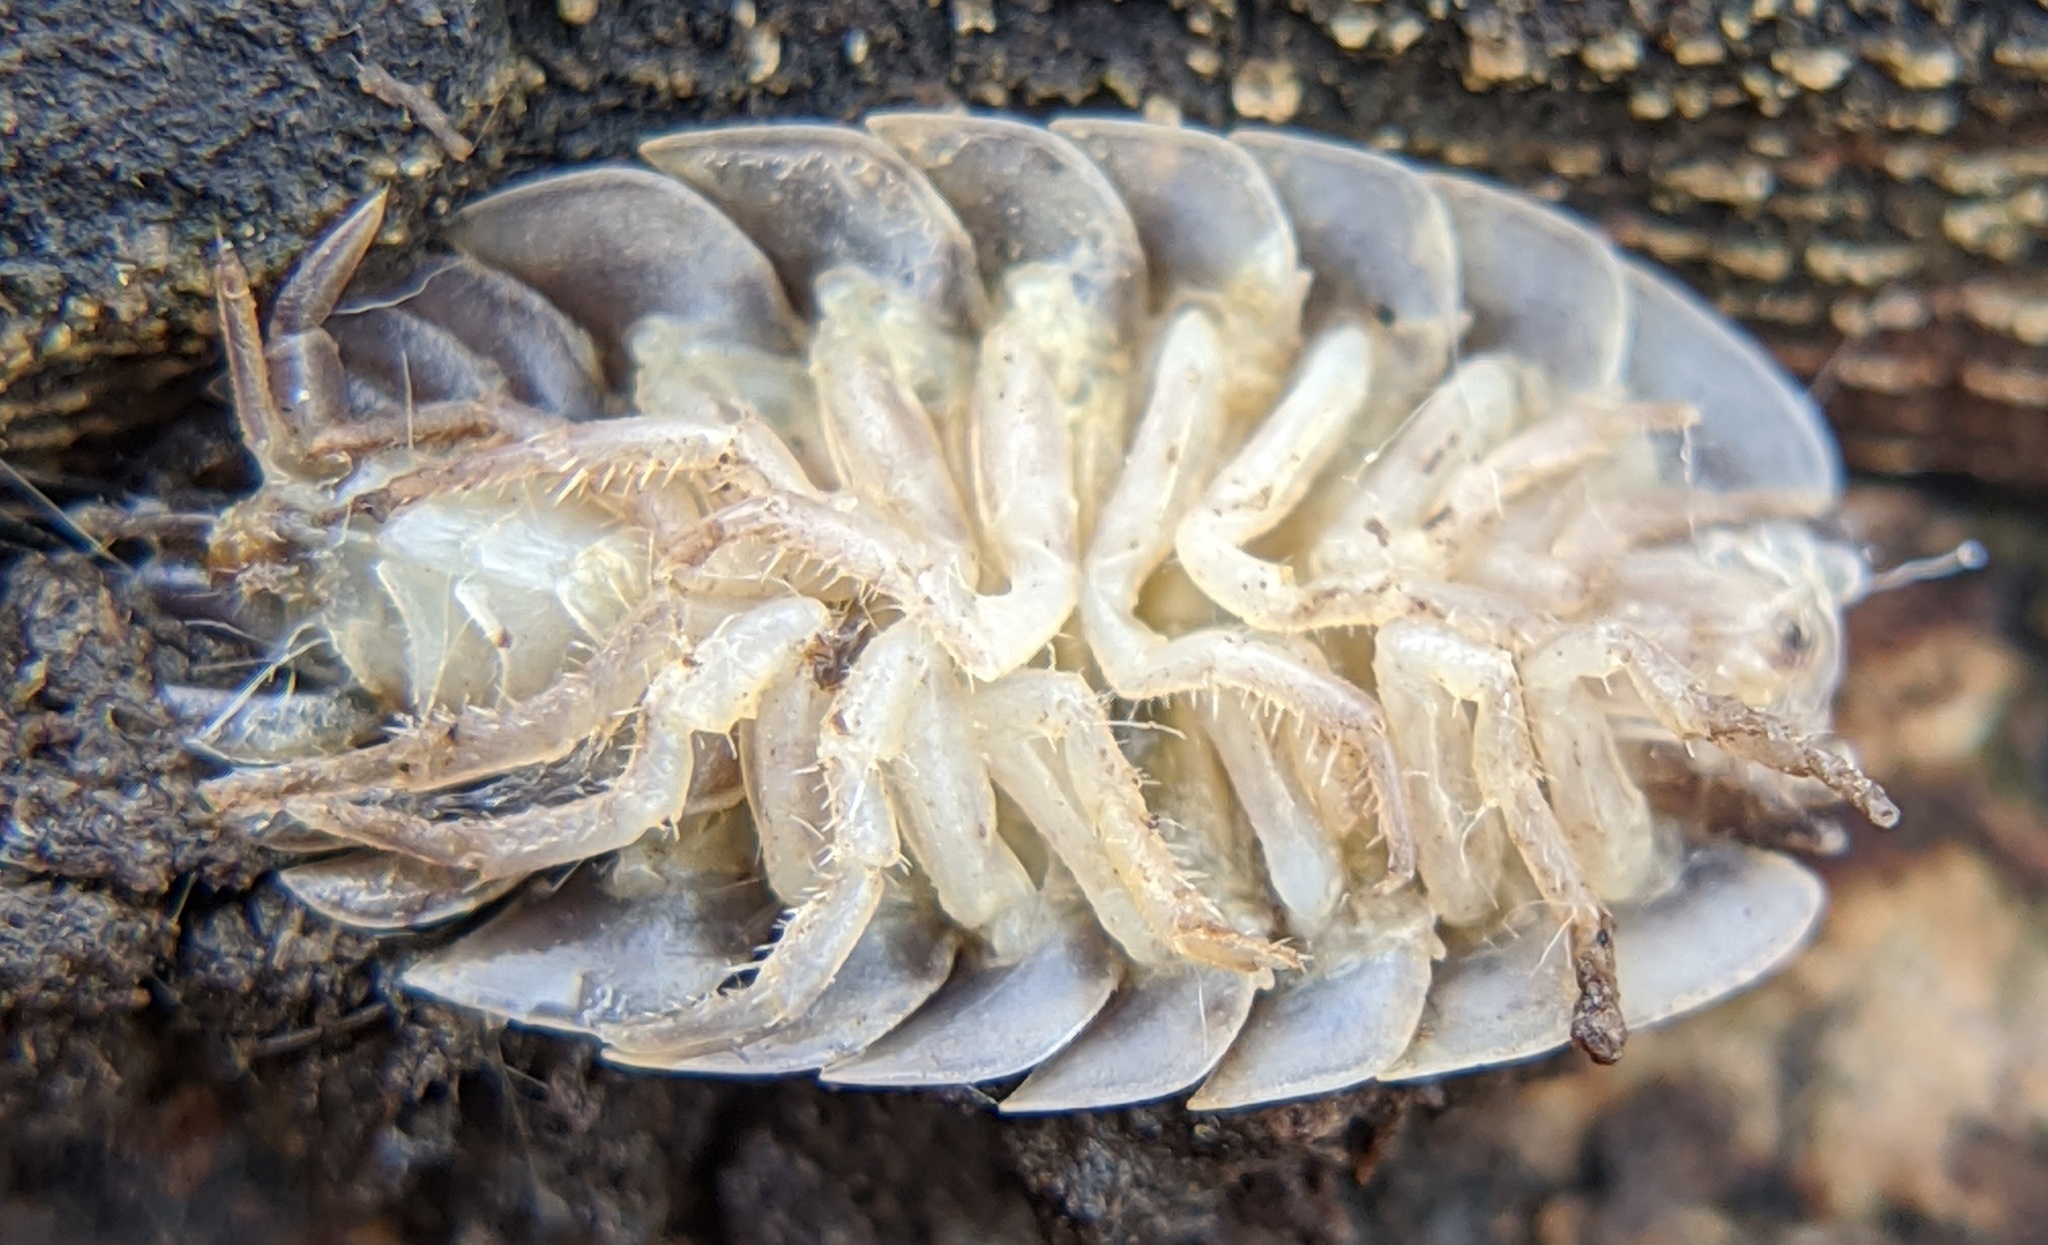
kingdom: Animalia
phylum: Arthropoda
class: Malacostraca
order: Isopoda
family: Oniscidae
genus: Oniscus
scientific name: Oniscus asellus
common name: Common shiny woodlouse
